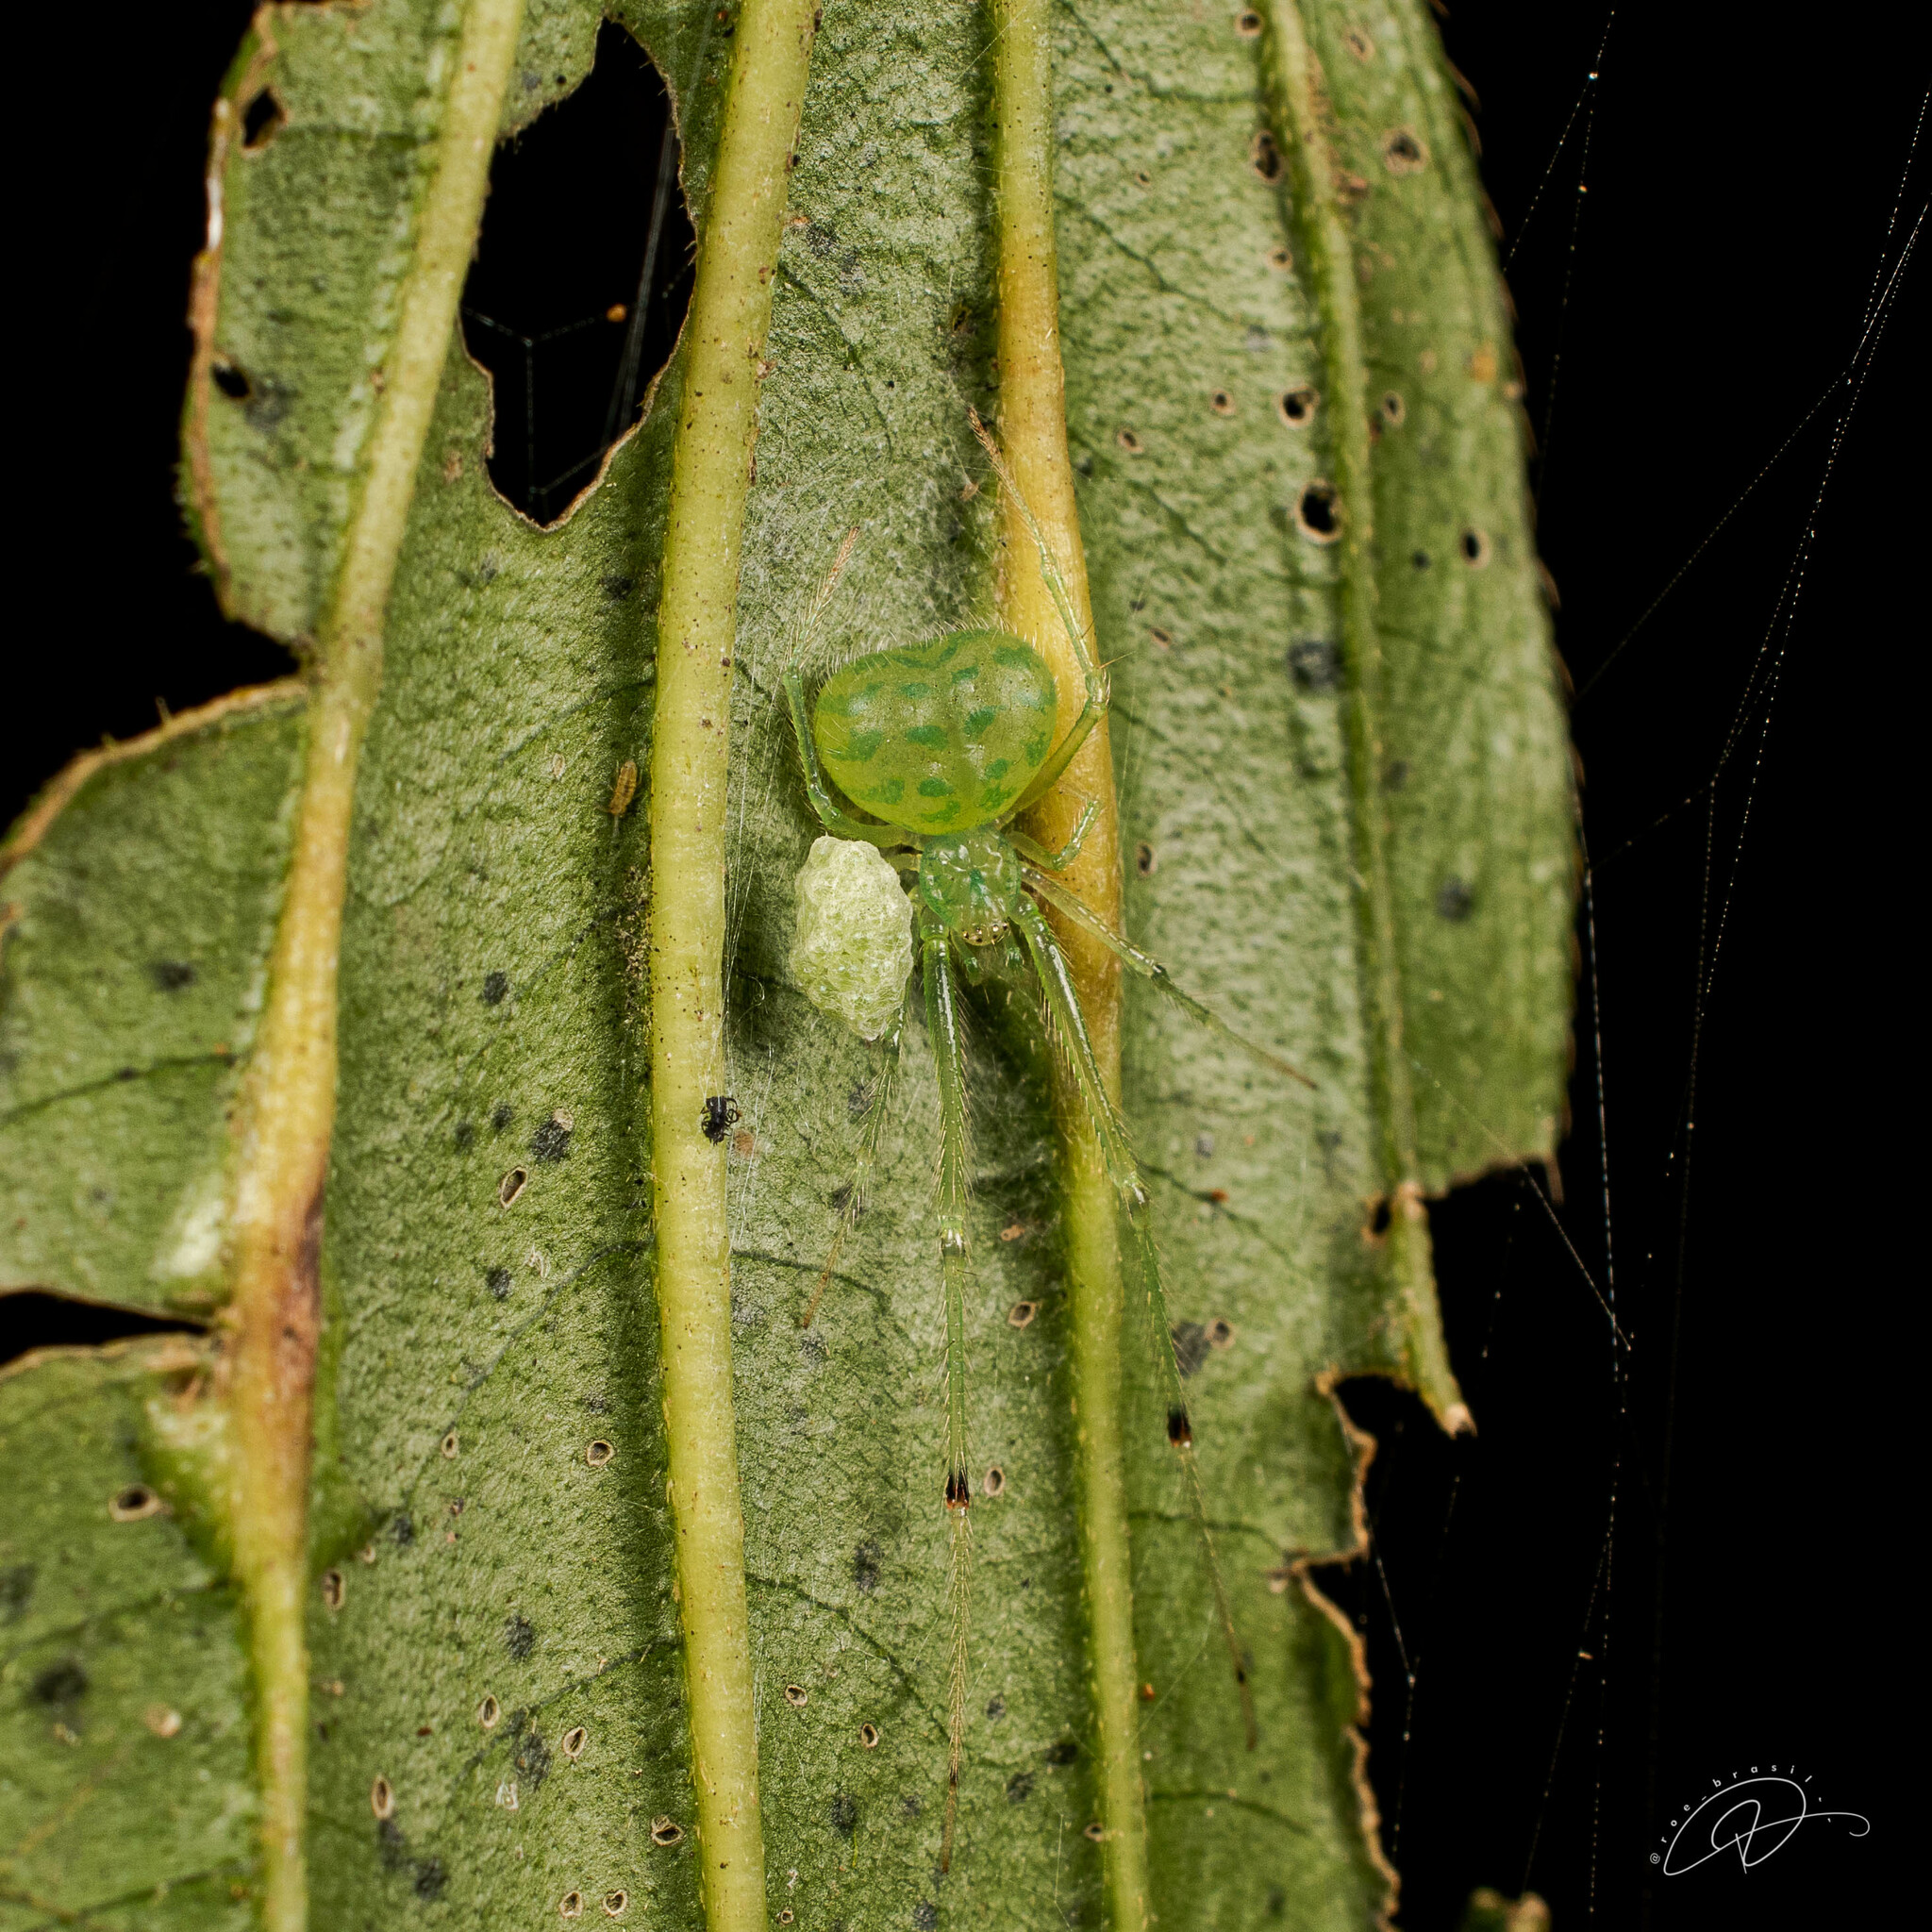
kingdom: Animalia
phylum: Arthropoda
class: Arachnida
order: Araneae
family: Theridiidae
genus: Theridion
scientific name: Theridion biezankoi
